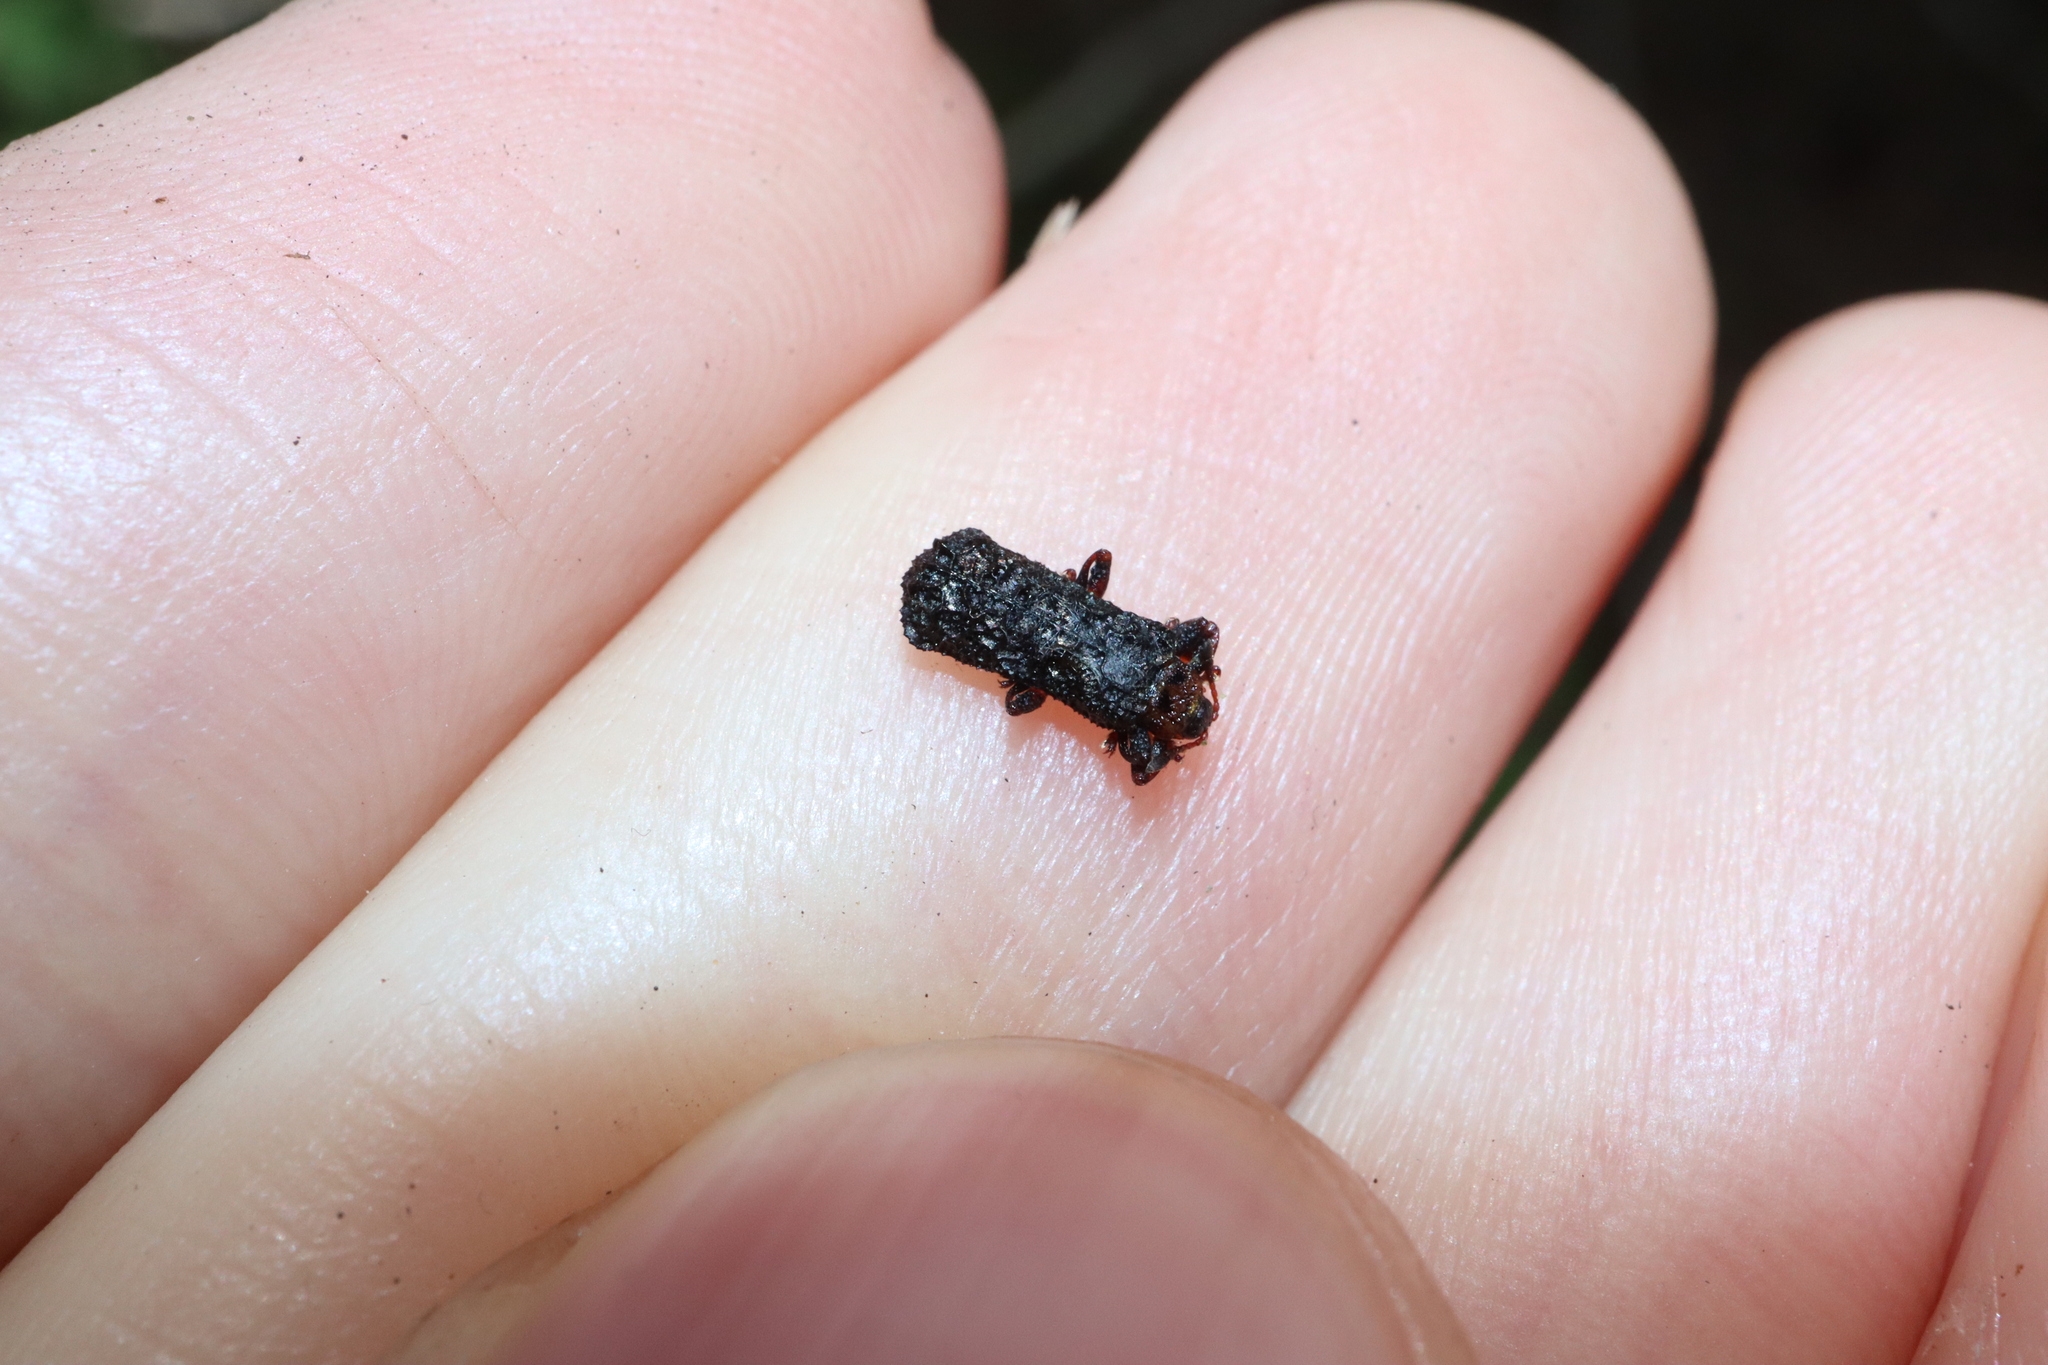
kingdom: Animalia
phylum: Arthropoda
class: Insecta
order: Coleoptera
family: Chrysomelidae
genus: Octotoma
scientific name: Octotoma scabripennis
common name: Beetle
